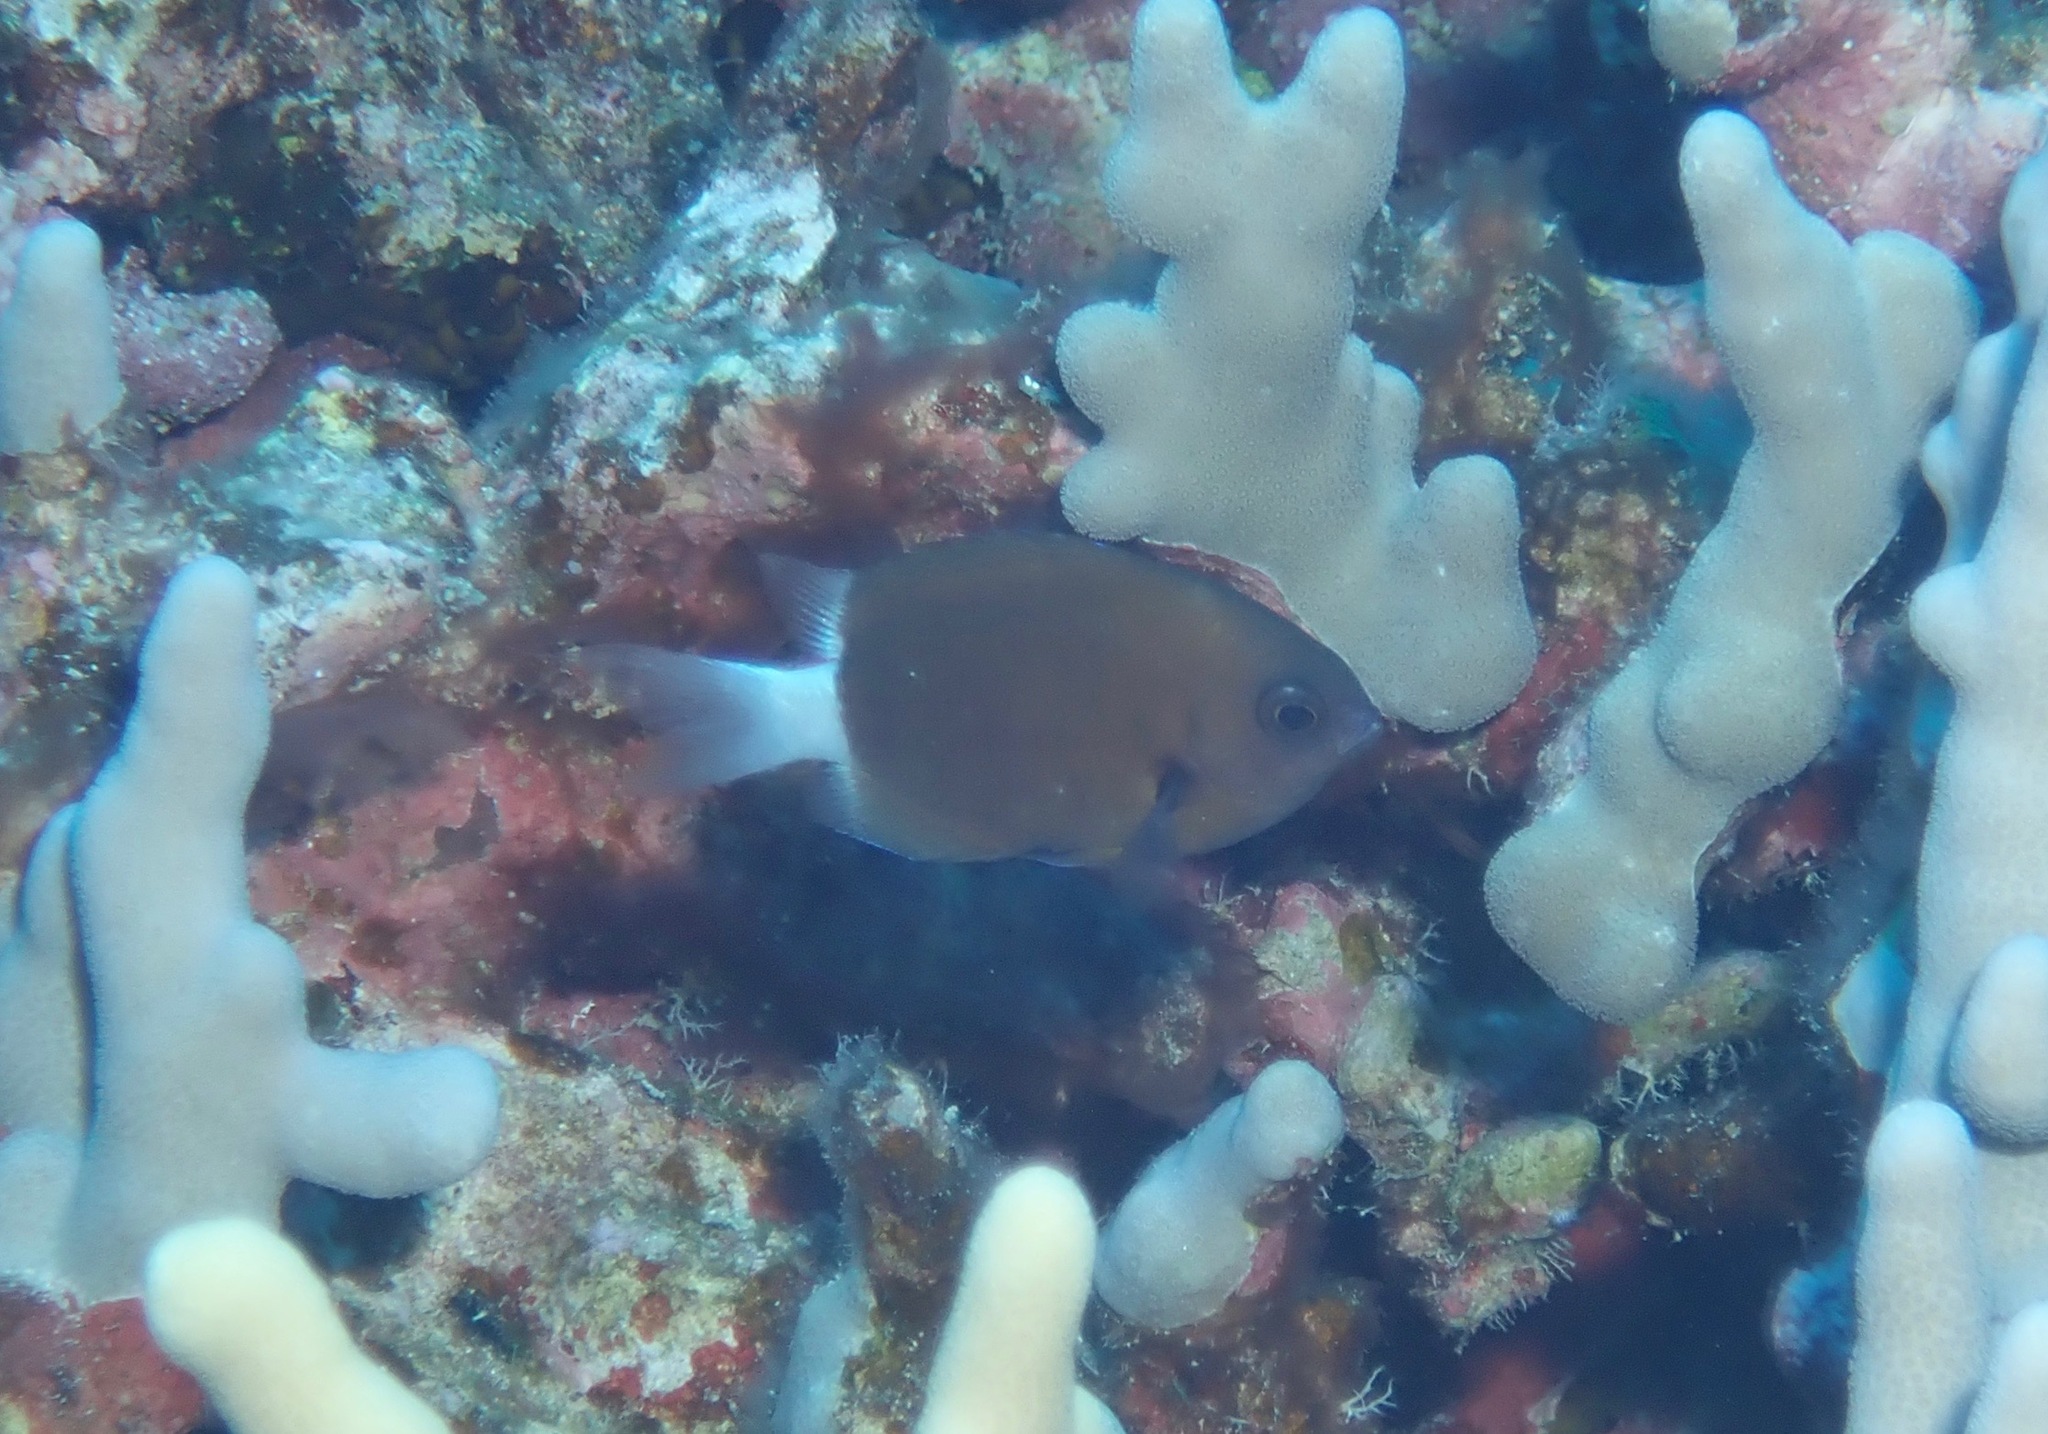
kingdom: Animalia
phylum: Chordata
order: Perciformes
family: Pomacentridae
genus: Chromis
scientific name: Chromis hanui
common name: Chocolate dip damsel
